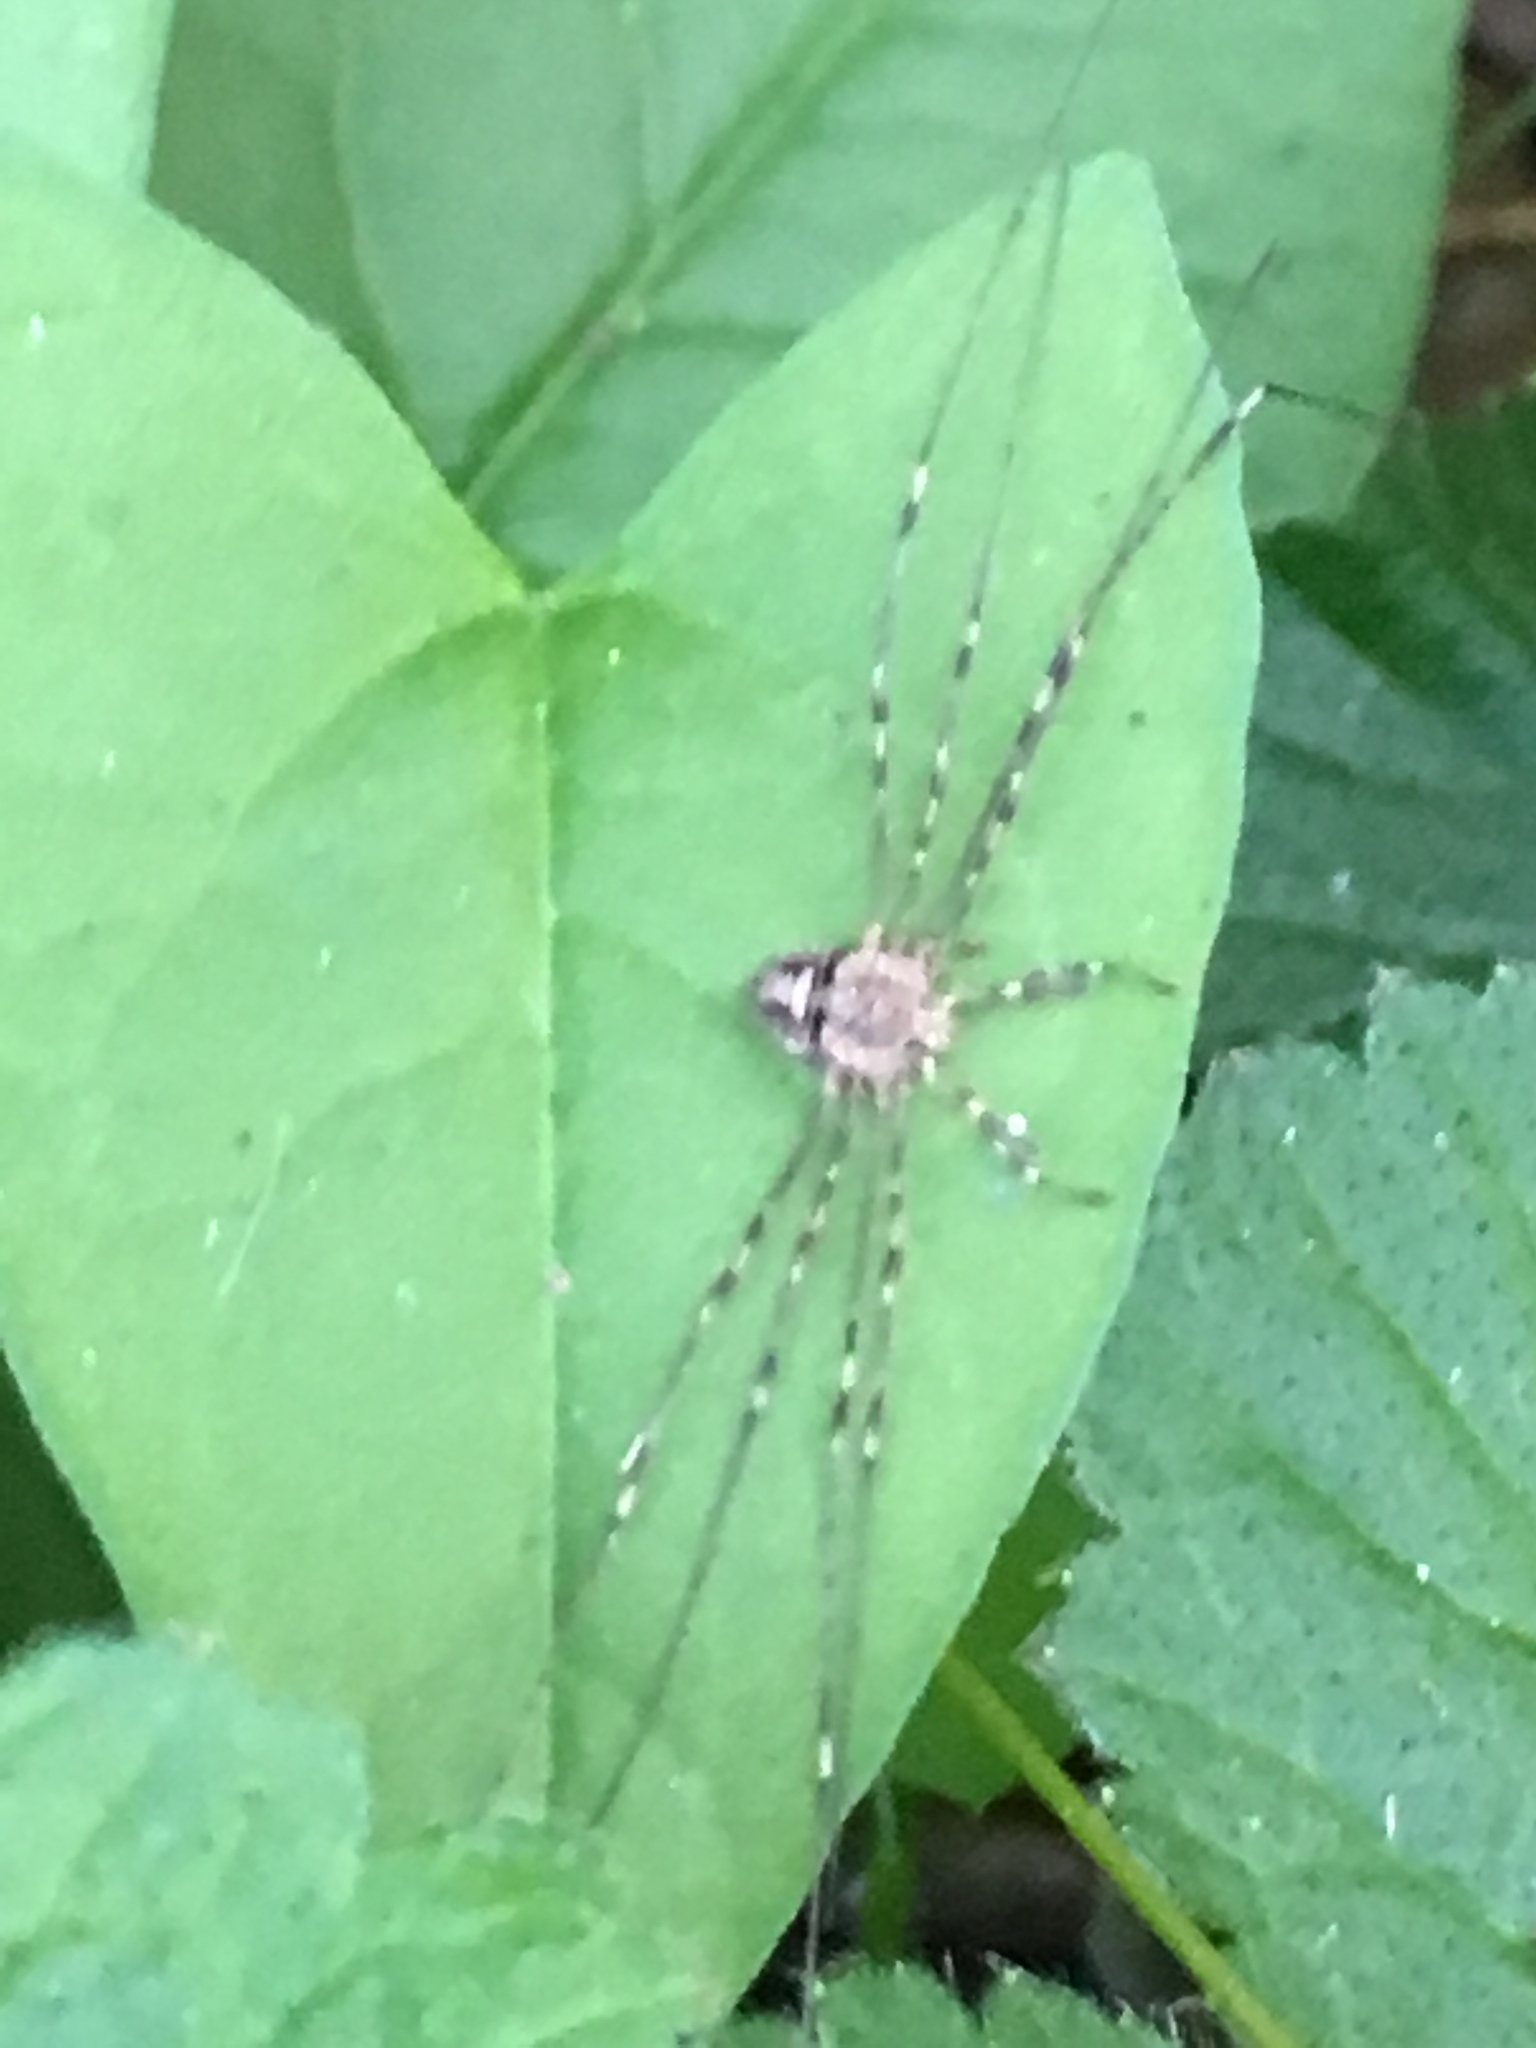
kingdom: Animalia
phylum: Arthropoda
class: Arachnida
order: Opiliones
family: Phalangiidae
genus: Dicranopalpus
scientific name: Dicranopalpus ramosus
